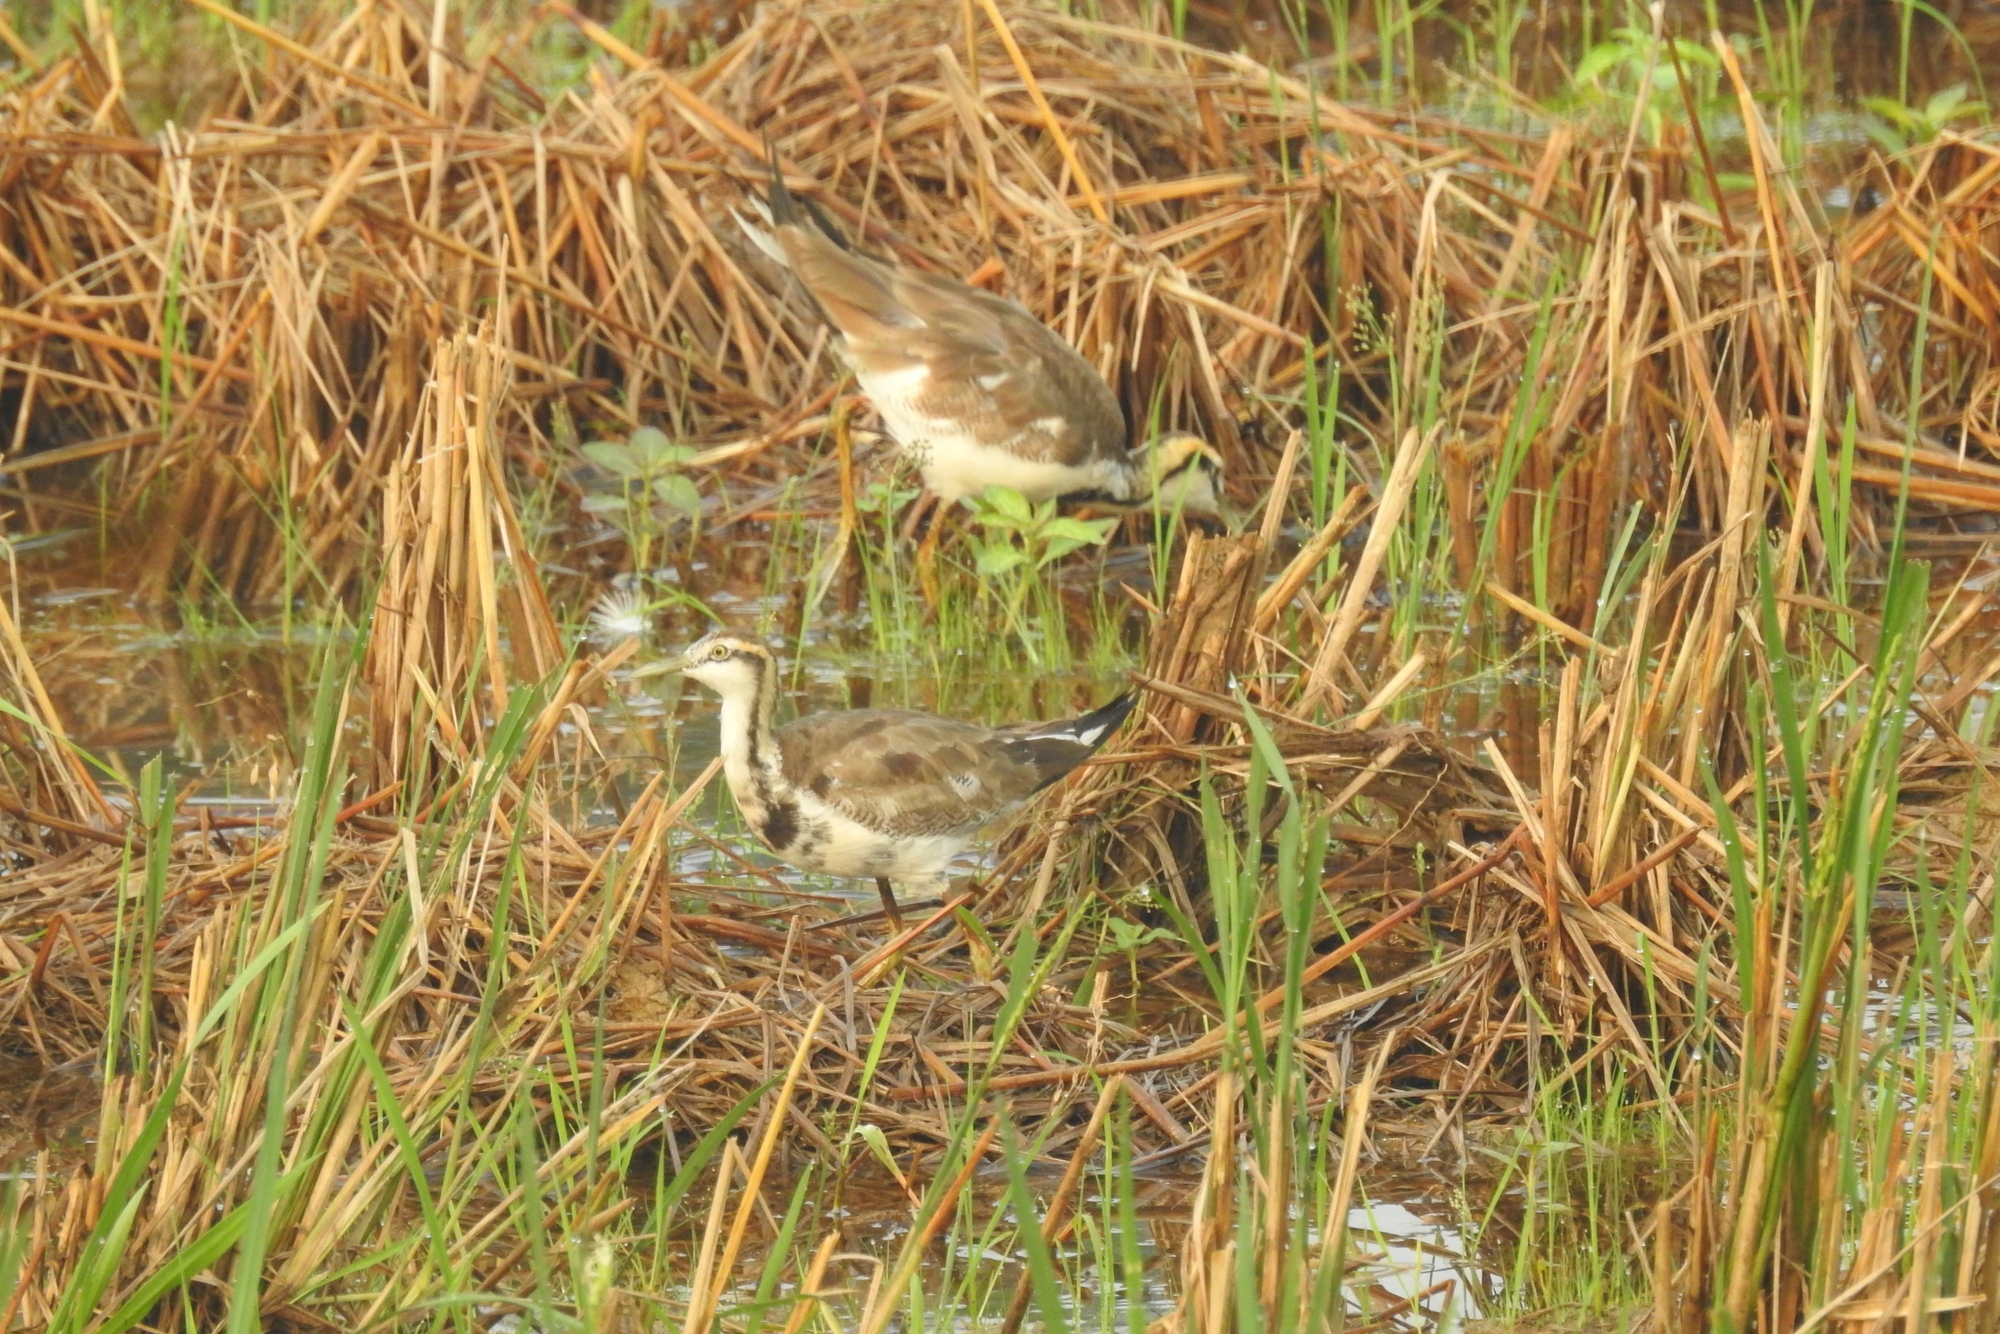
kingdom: Animalia
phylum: Chordata
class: Aves
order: Charadriiformes
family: Jacanidae
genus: Hydrophasianus
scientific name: Hydrophasianus chirurgus
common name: Pheasant-tailed jacana
